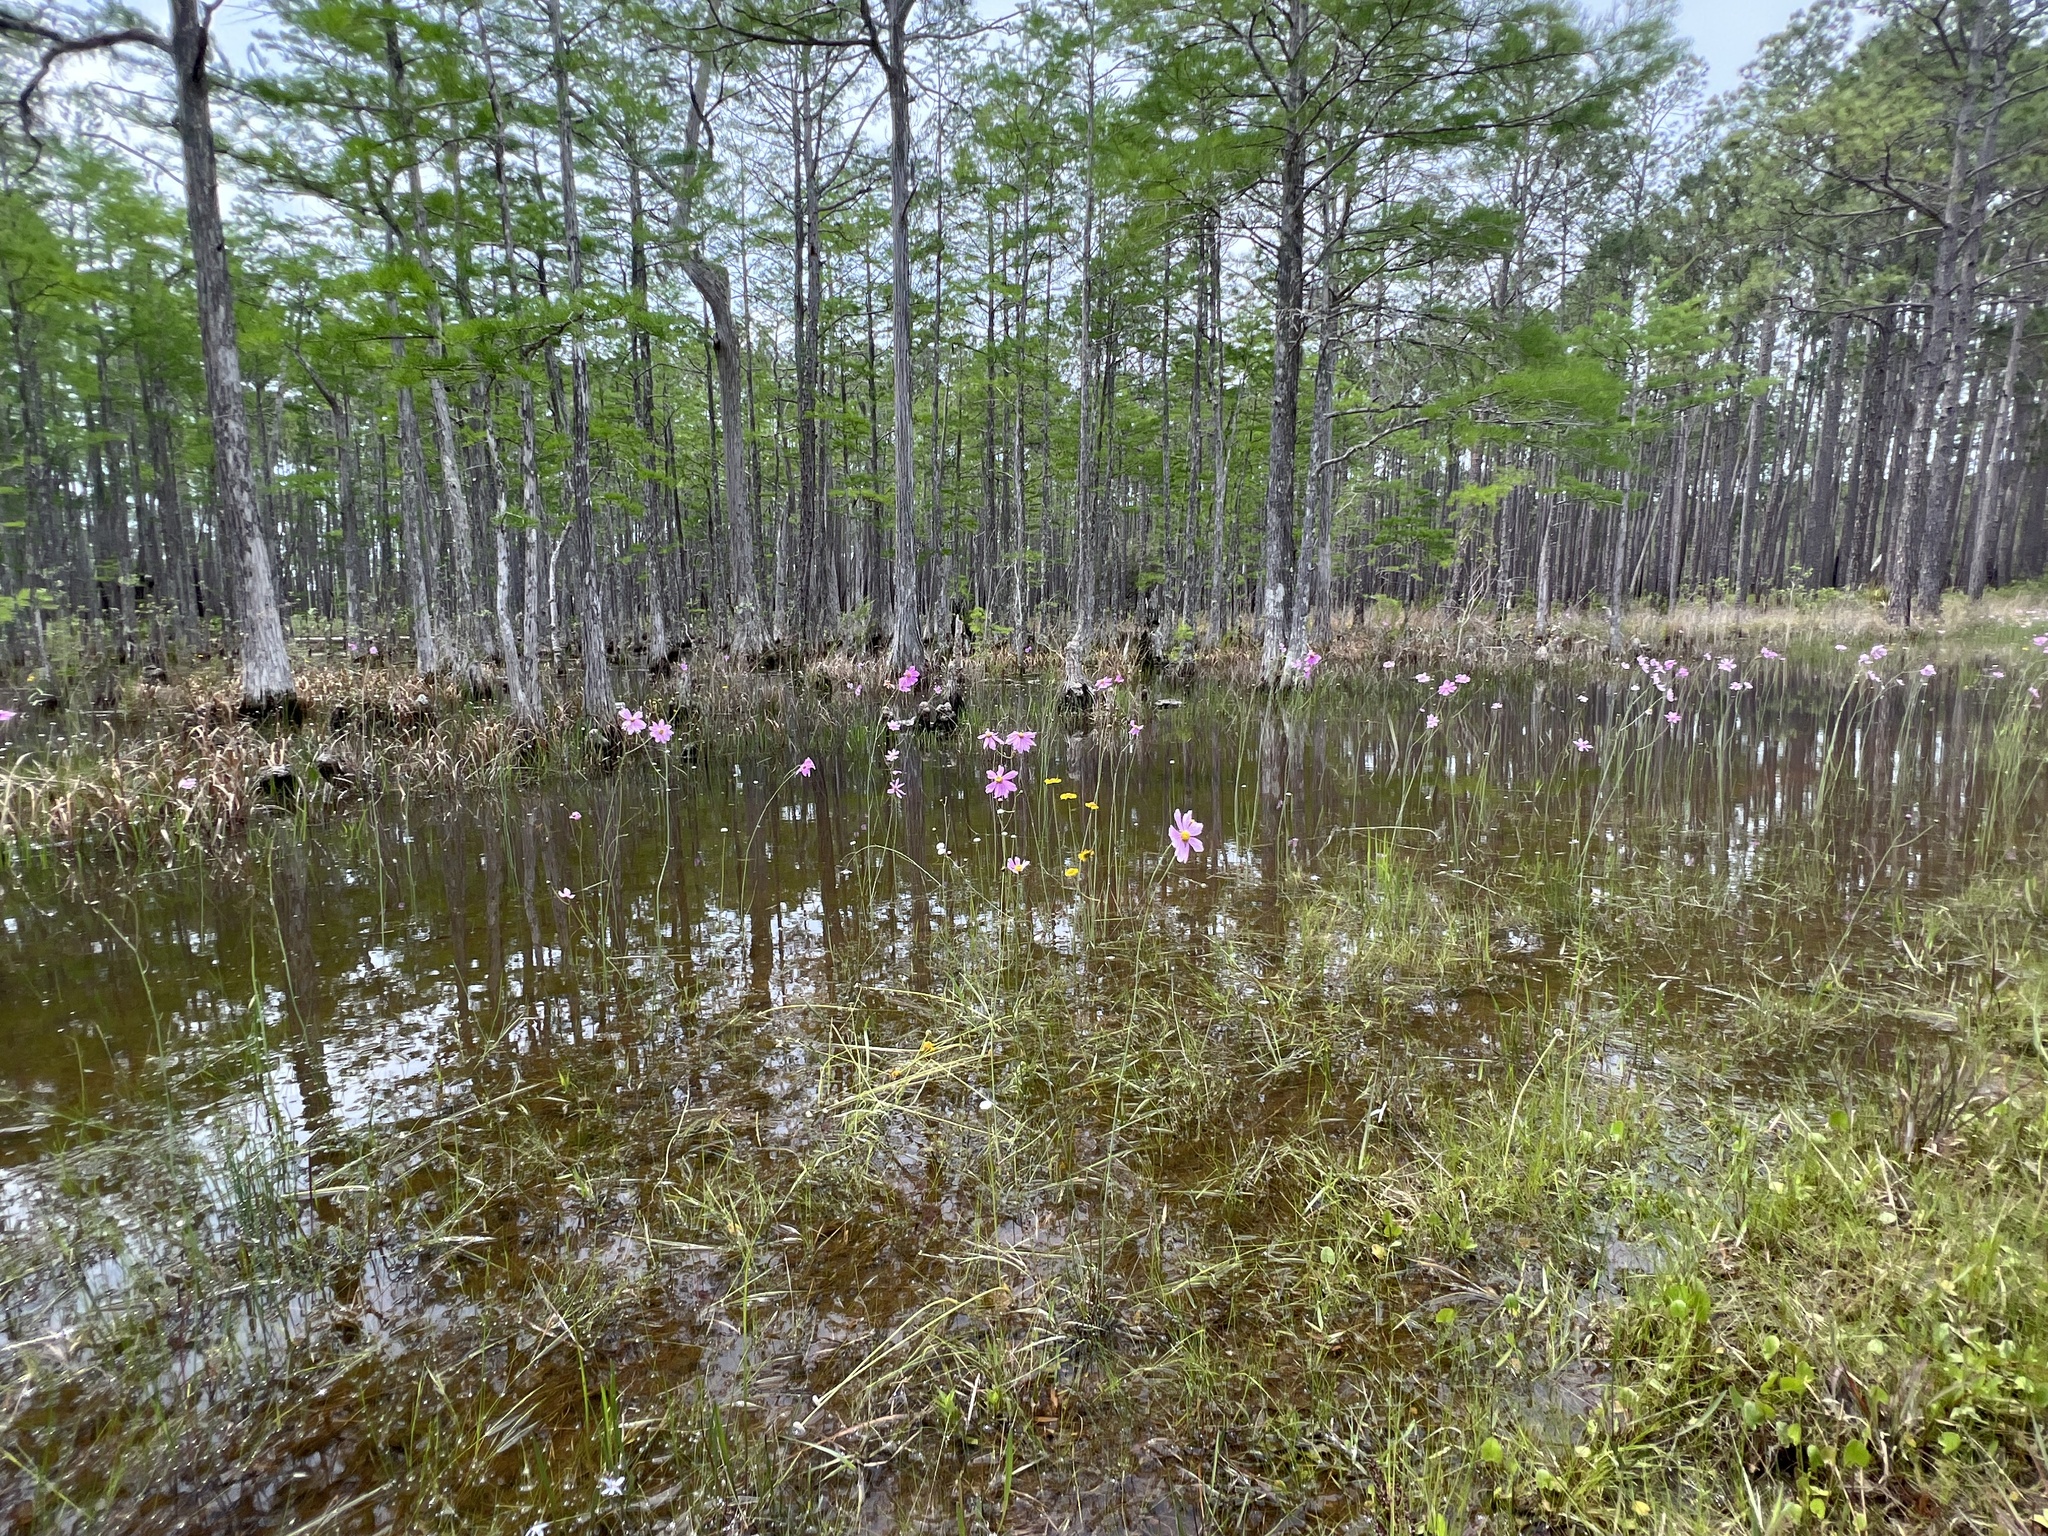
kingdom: Plantae
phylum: Tracheophyta
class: Magnoliopsida
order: Asterales
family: Asteraceae
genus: Coreopsis
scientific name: Coreopsis nudata
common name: Purple tickseed
